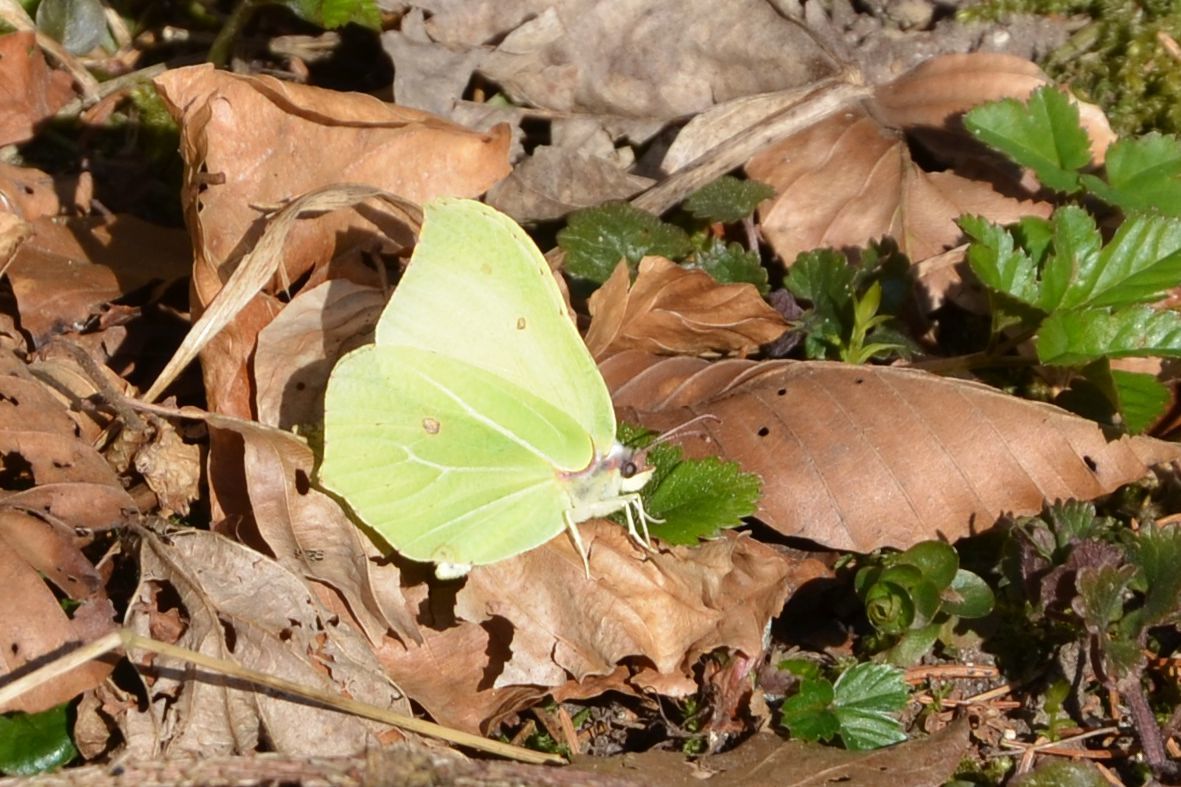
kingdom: Animalia
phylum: Arthropoda
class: Insecta
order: Lepidoptera
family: Pieridae
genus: Gonepteryx
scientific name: Gonepteryx rhamni
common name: Brimstone
